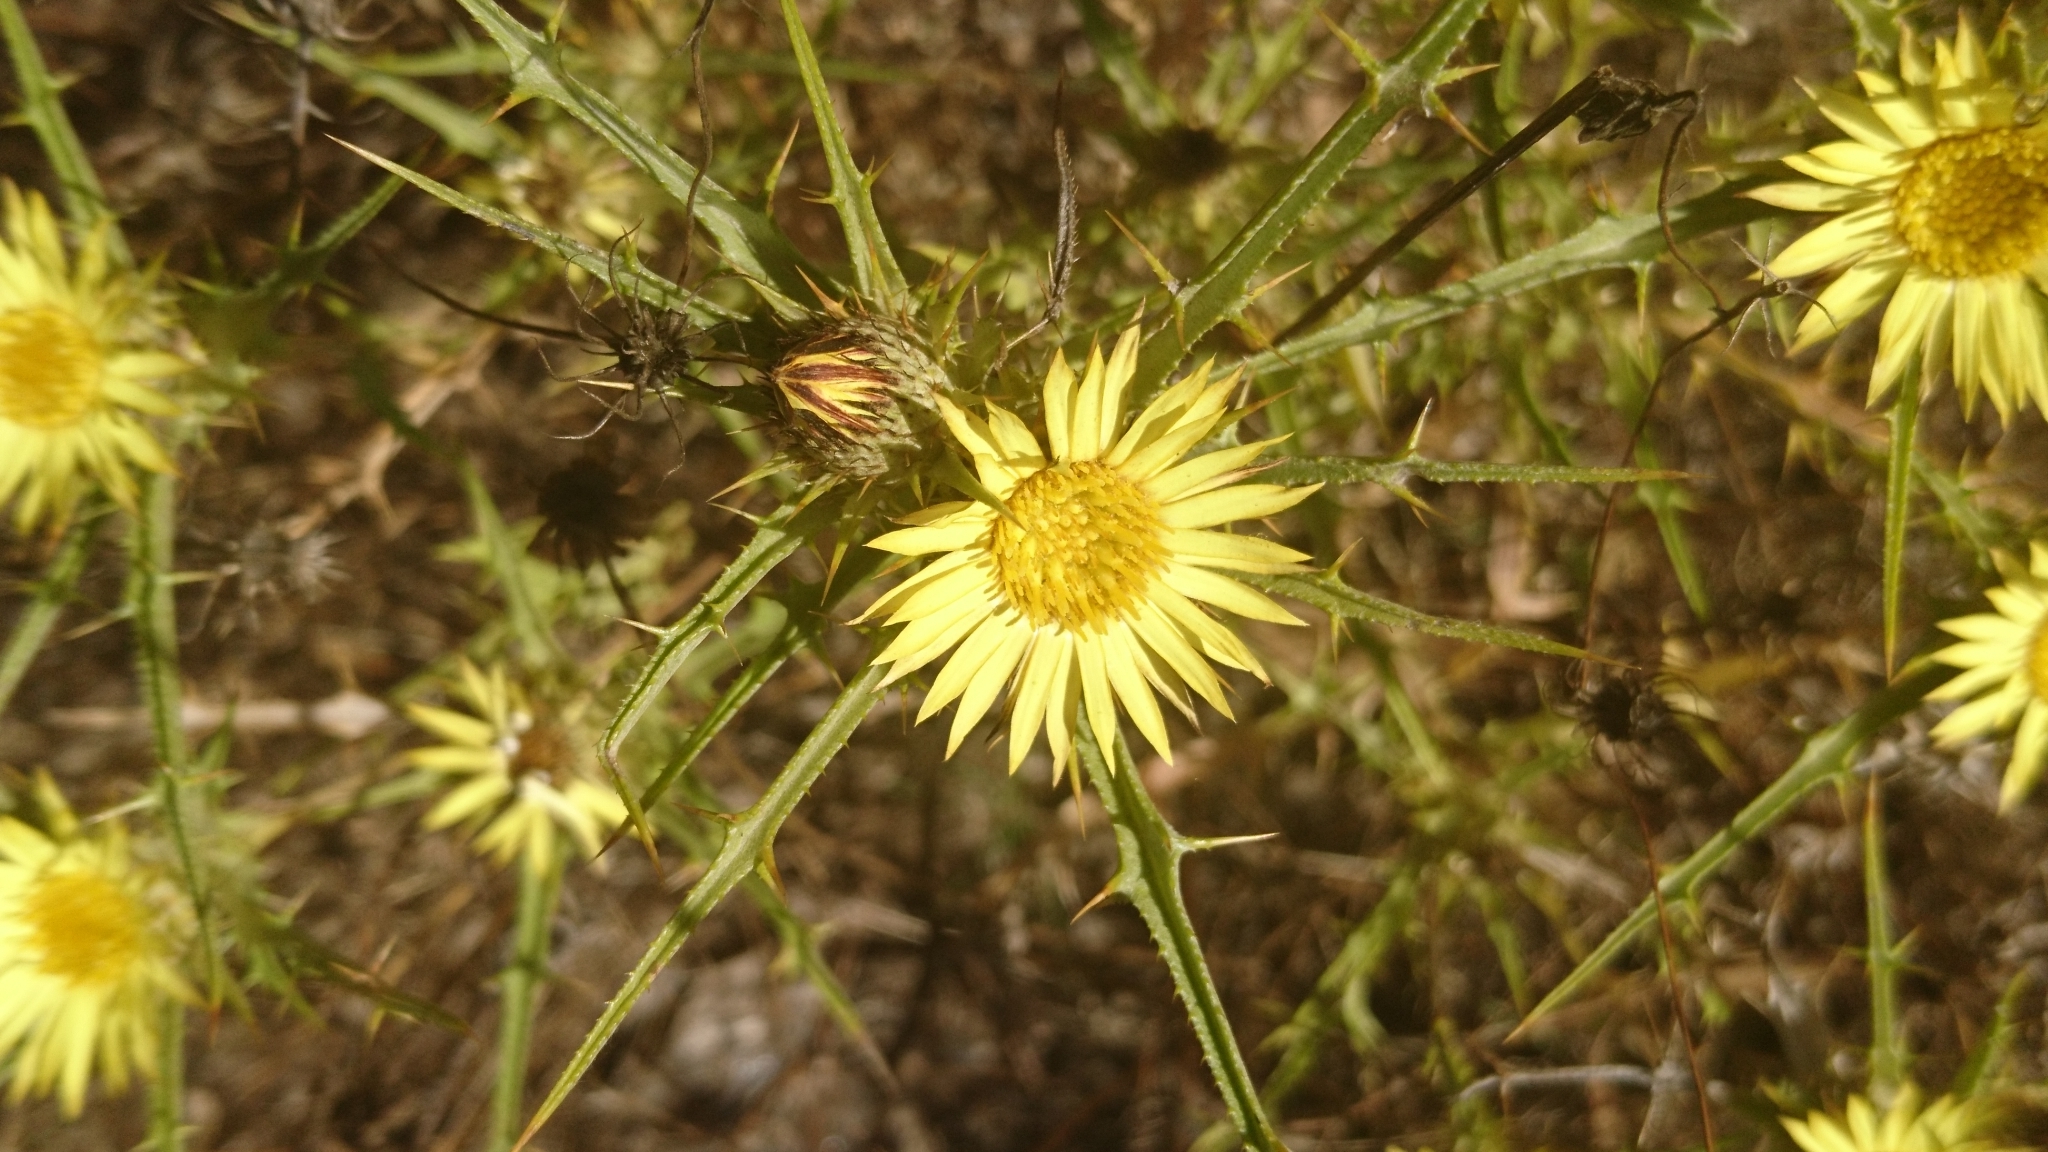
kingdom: Plantae
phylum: Tracheophyta
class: Magnoliopsida
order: Asterales
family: Asteraceae
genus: Carlina
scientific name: Carlina racemosa
